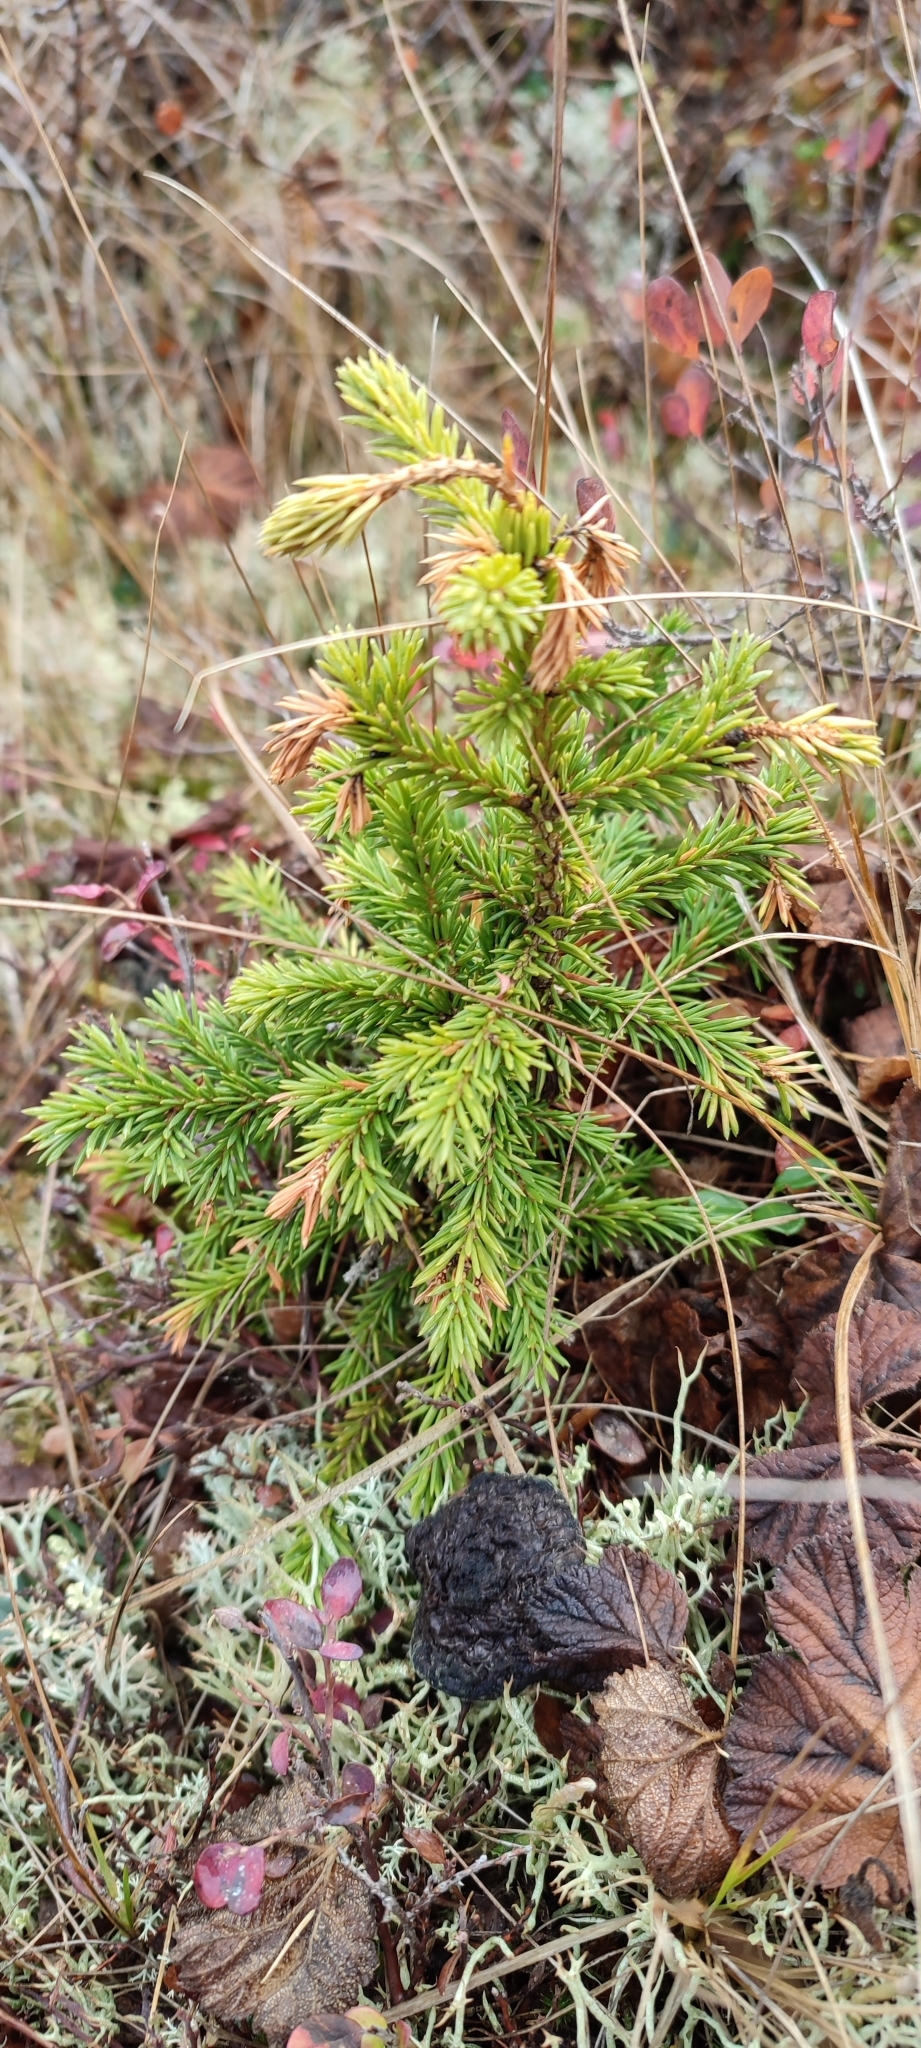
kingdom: Plantae
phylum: Tracheophyta
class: Pinopsida
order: Pinales
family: Pinaceae
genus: Picea
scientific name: Picea obovata
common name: Siberian spruce
